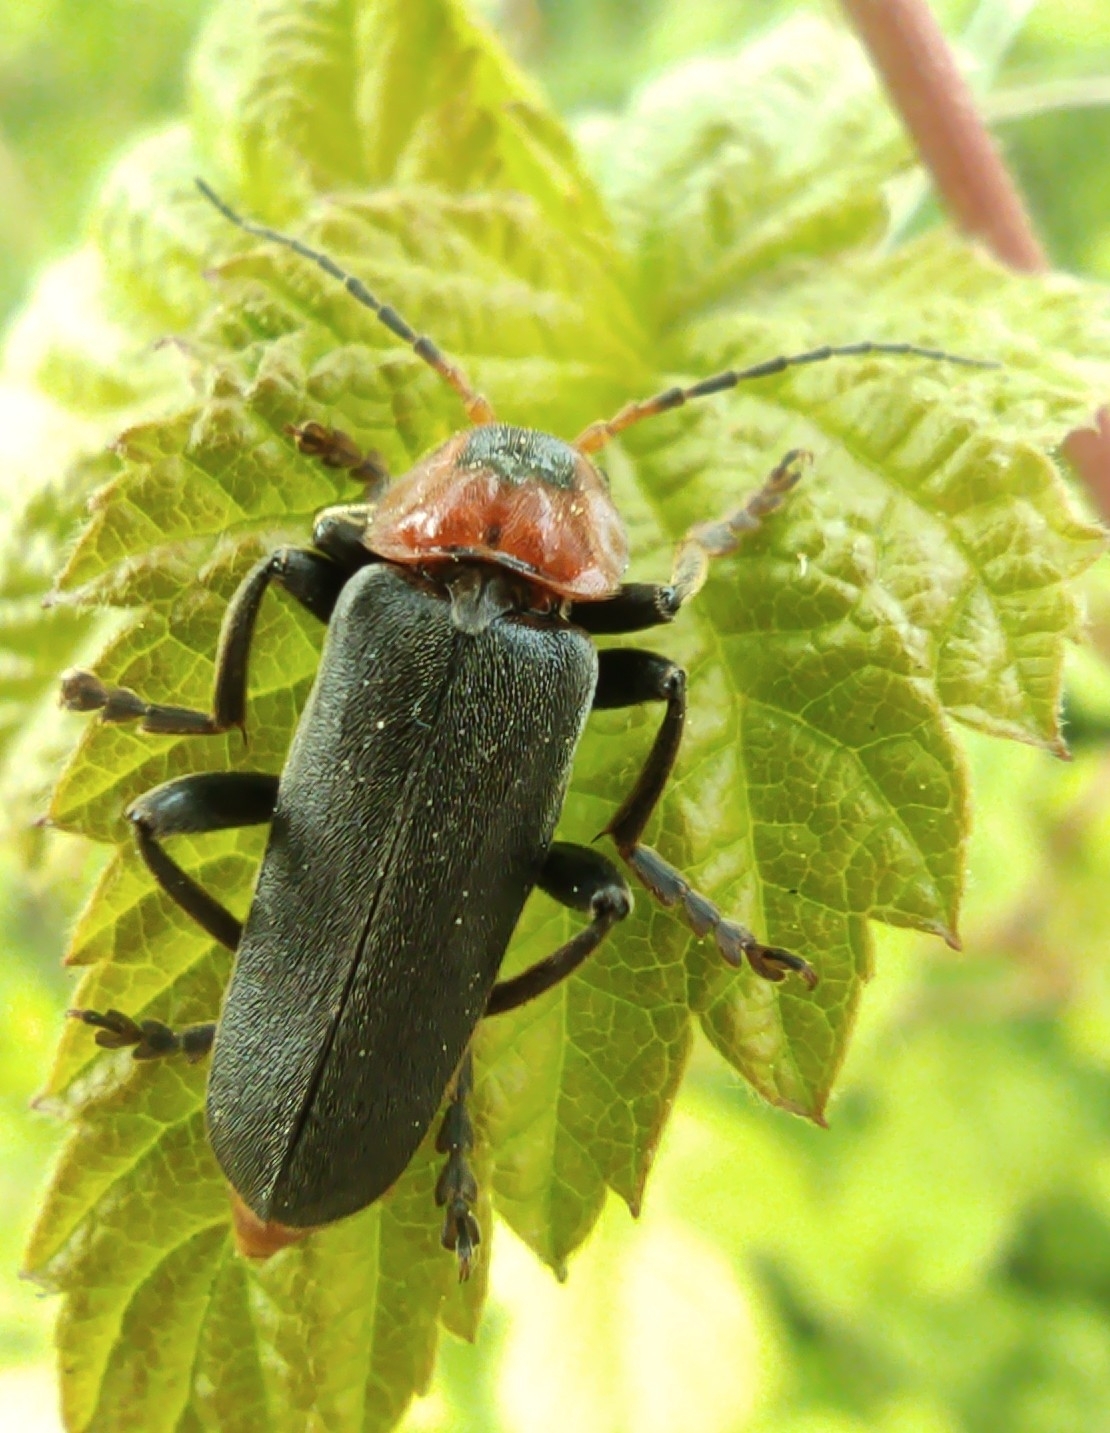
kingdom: Animalia
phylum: Arthropoda
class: Insecta
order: Coleoptera
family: Cantharidae
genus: Cantharis
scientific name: Cantharis fusca
